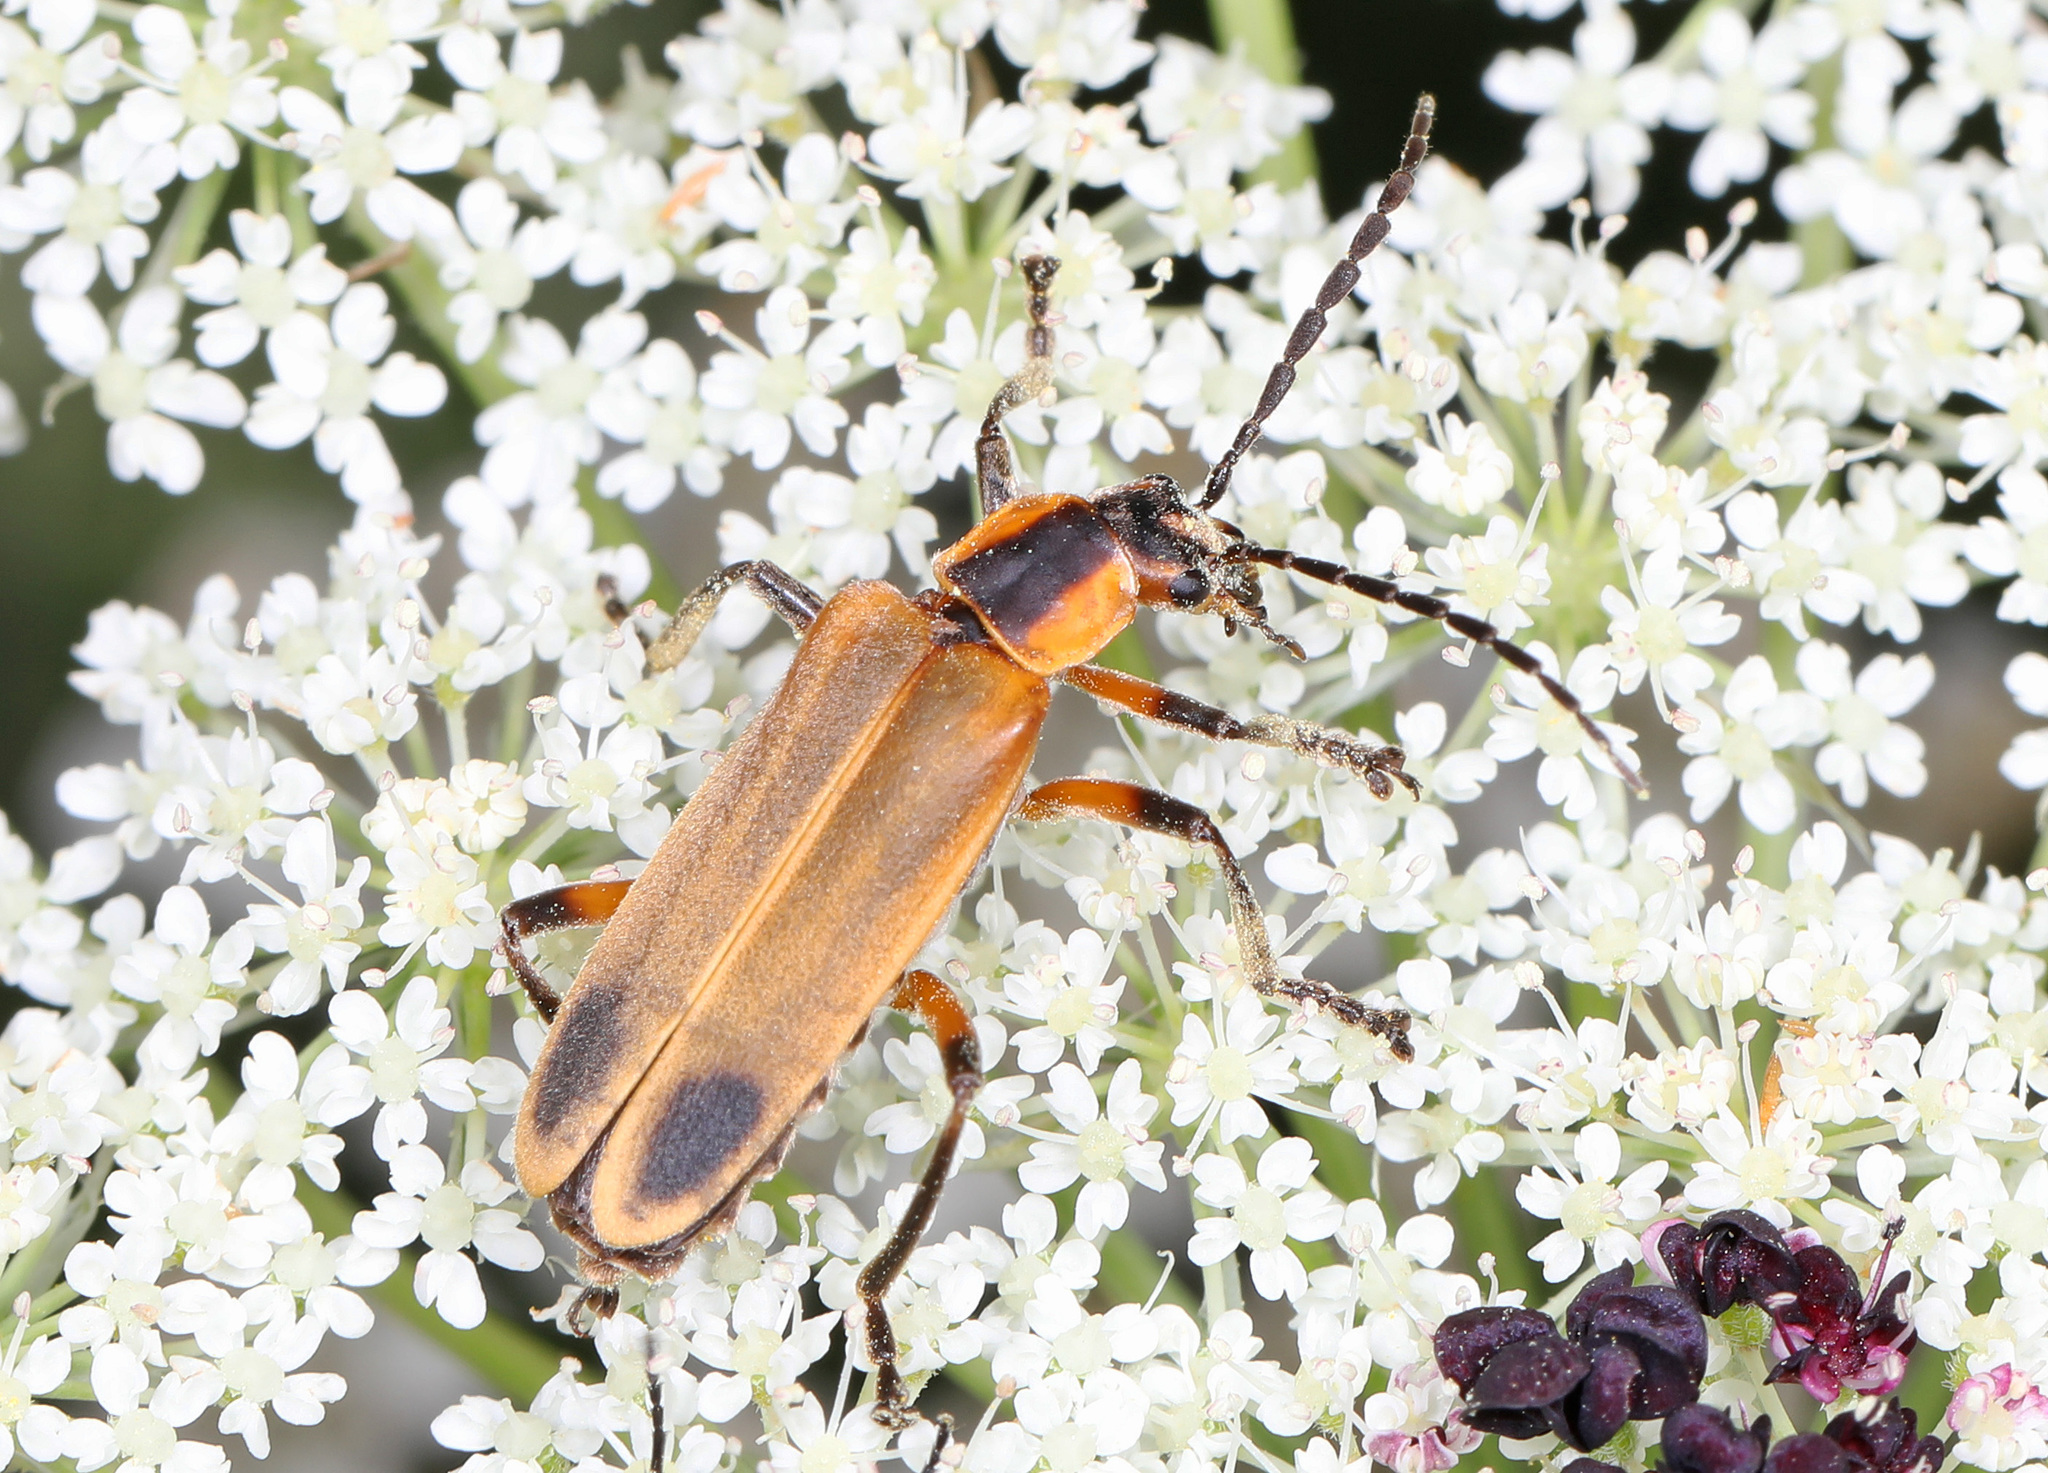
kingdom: Animalia
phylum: Arthropoda
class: Insecta
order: Coleoptera
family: Cantharidae
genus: Chauliognathus
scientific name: Chauliognathus marginatus
